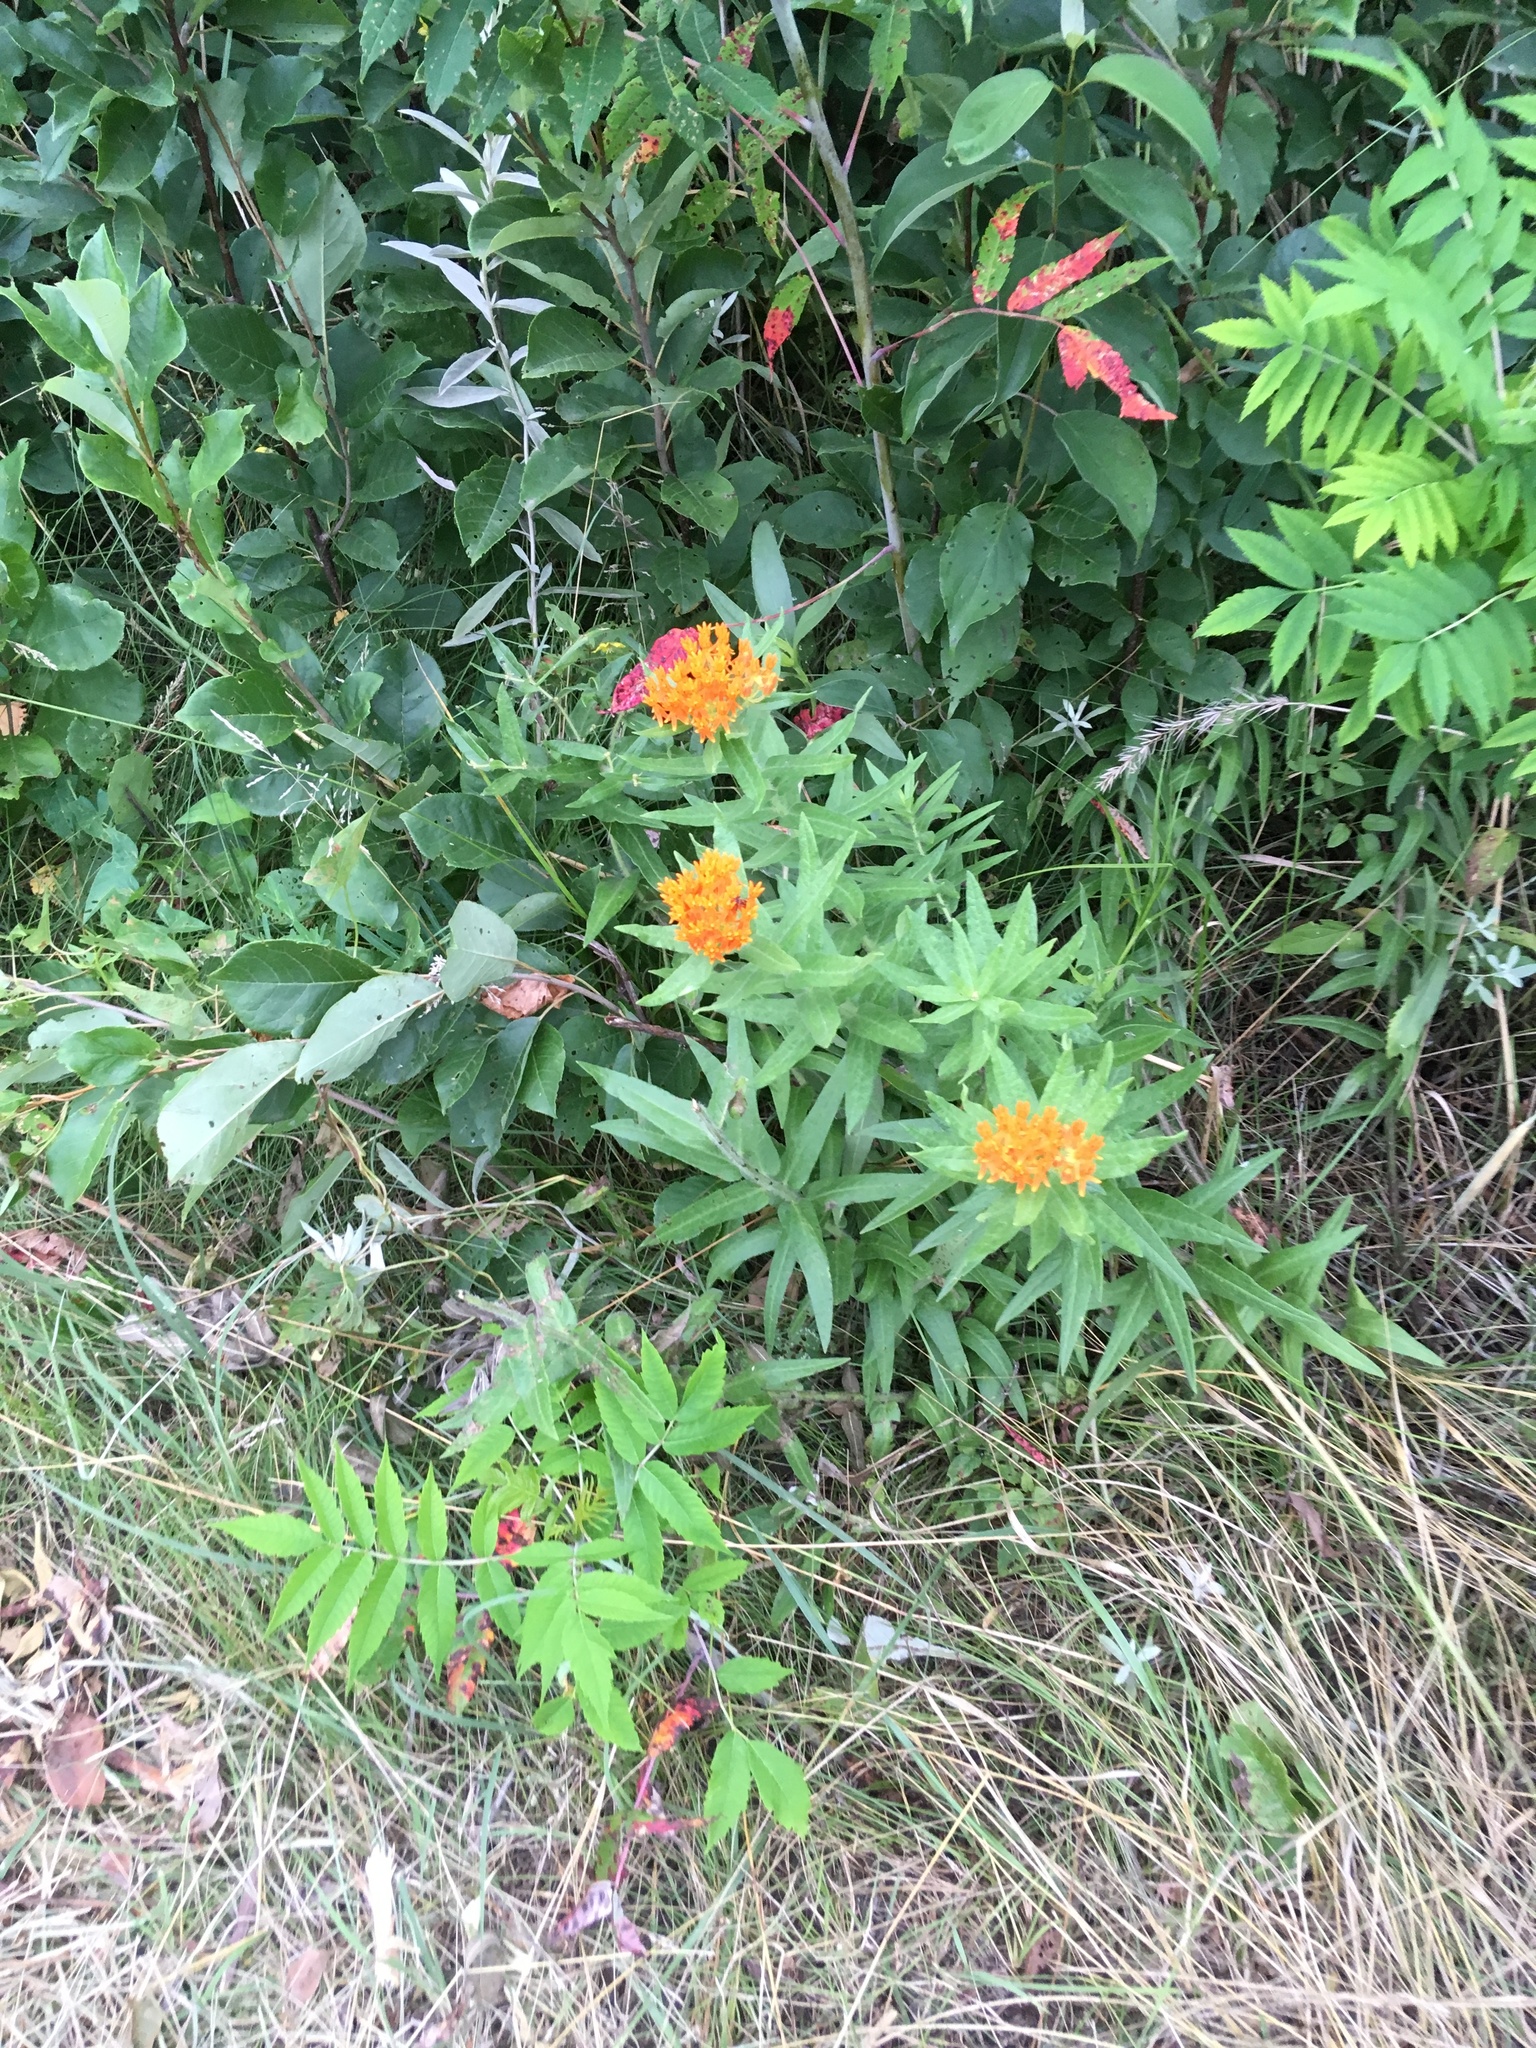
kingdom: Plantae
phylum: Tracheophyta
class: Magnoliopsida
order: Gentianales
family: Apocynaceae
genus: Asclepias
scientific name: Asclepias tuberosa
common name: Butterfly milkweed
